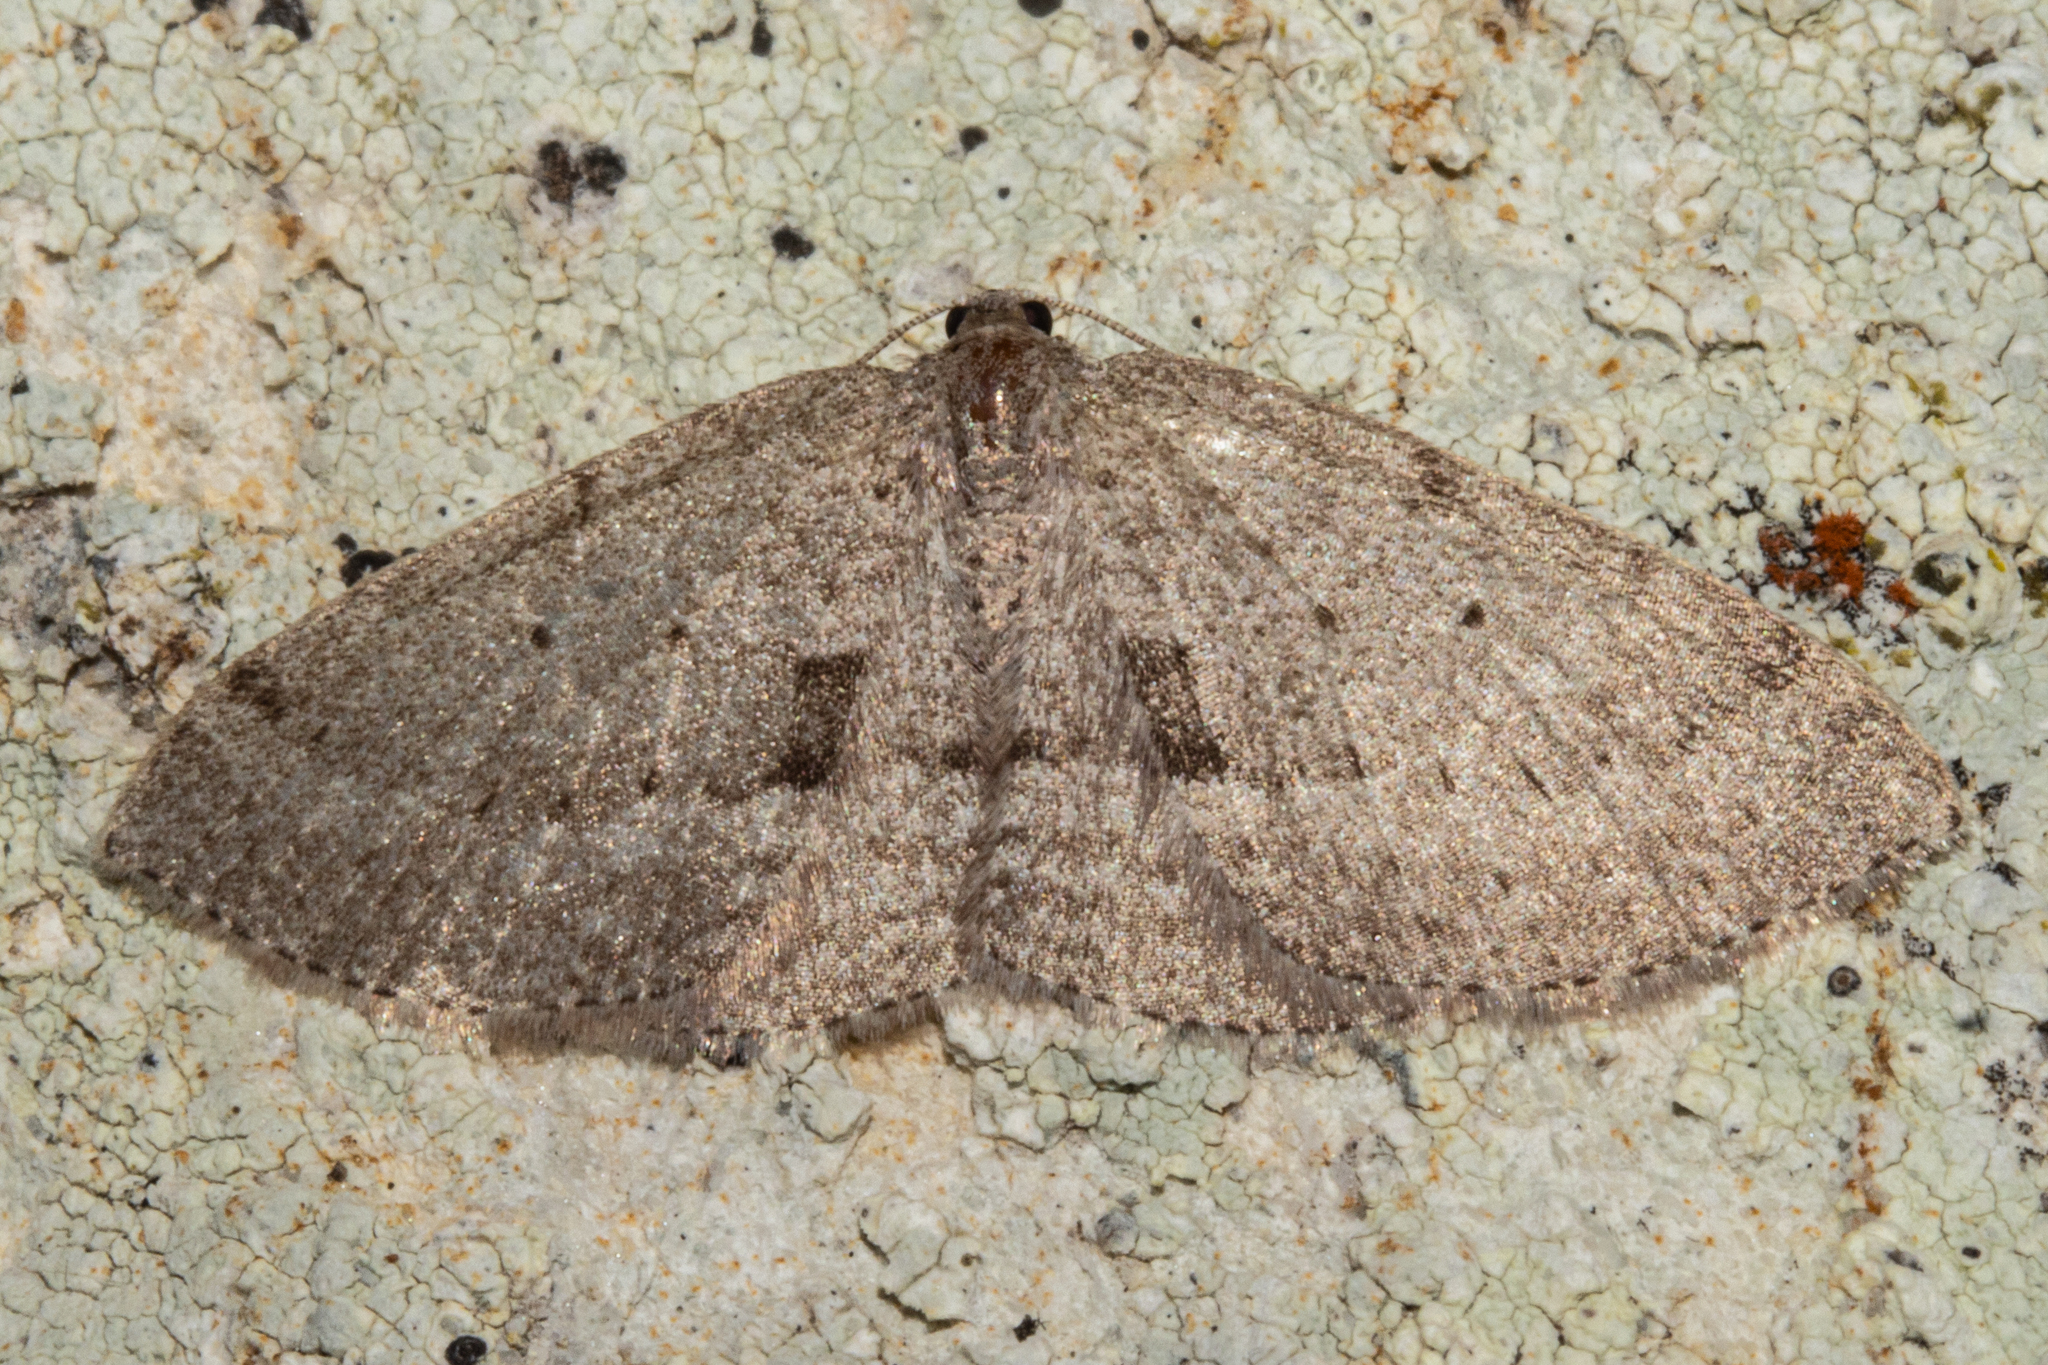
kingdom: Animalia
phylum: Arthropoda
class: Insecta
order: Lepidoptera
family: Geometridae
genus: Poecilasthena
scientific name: Poecilasthena schistaria
